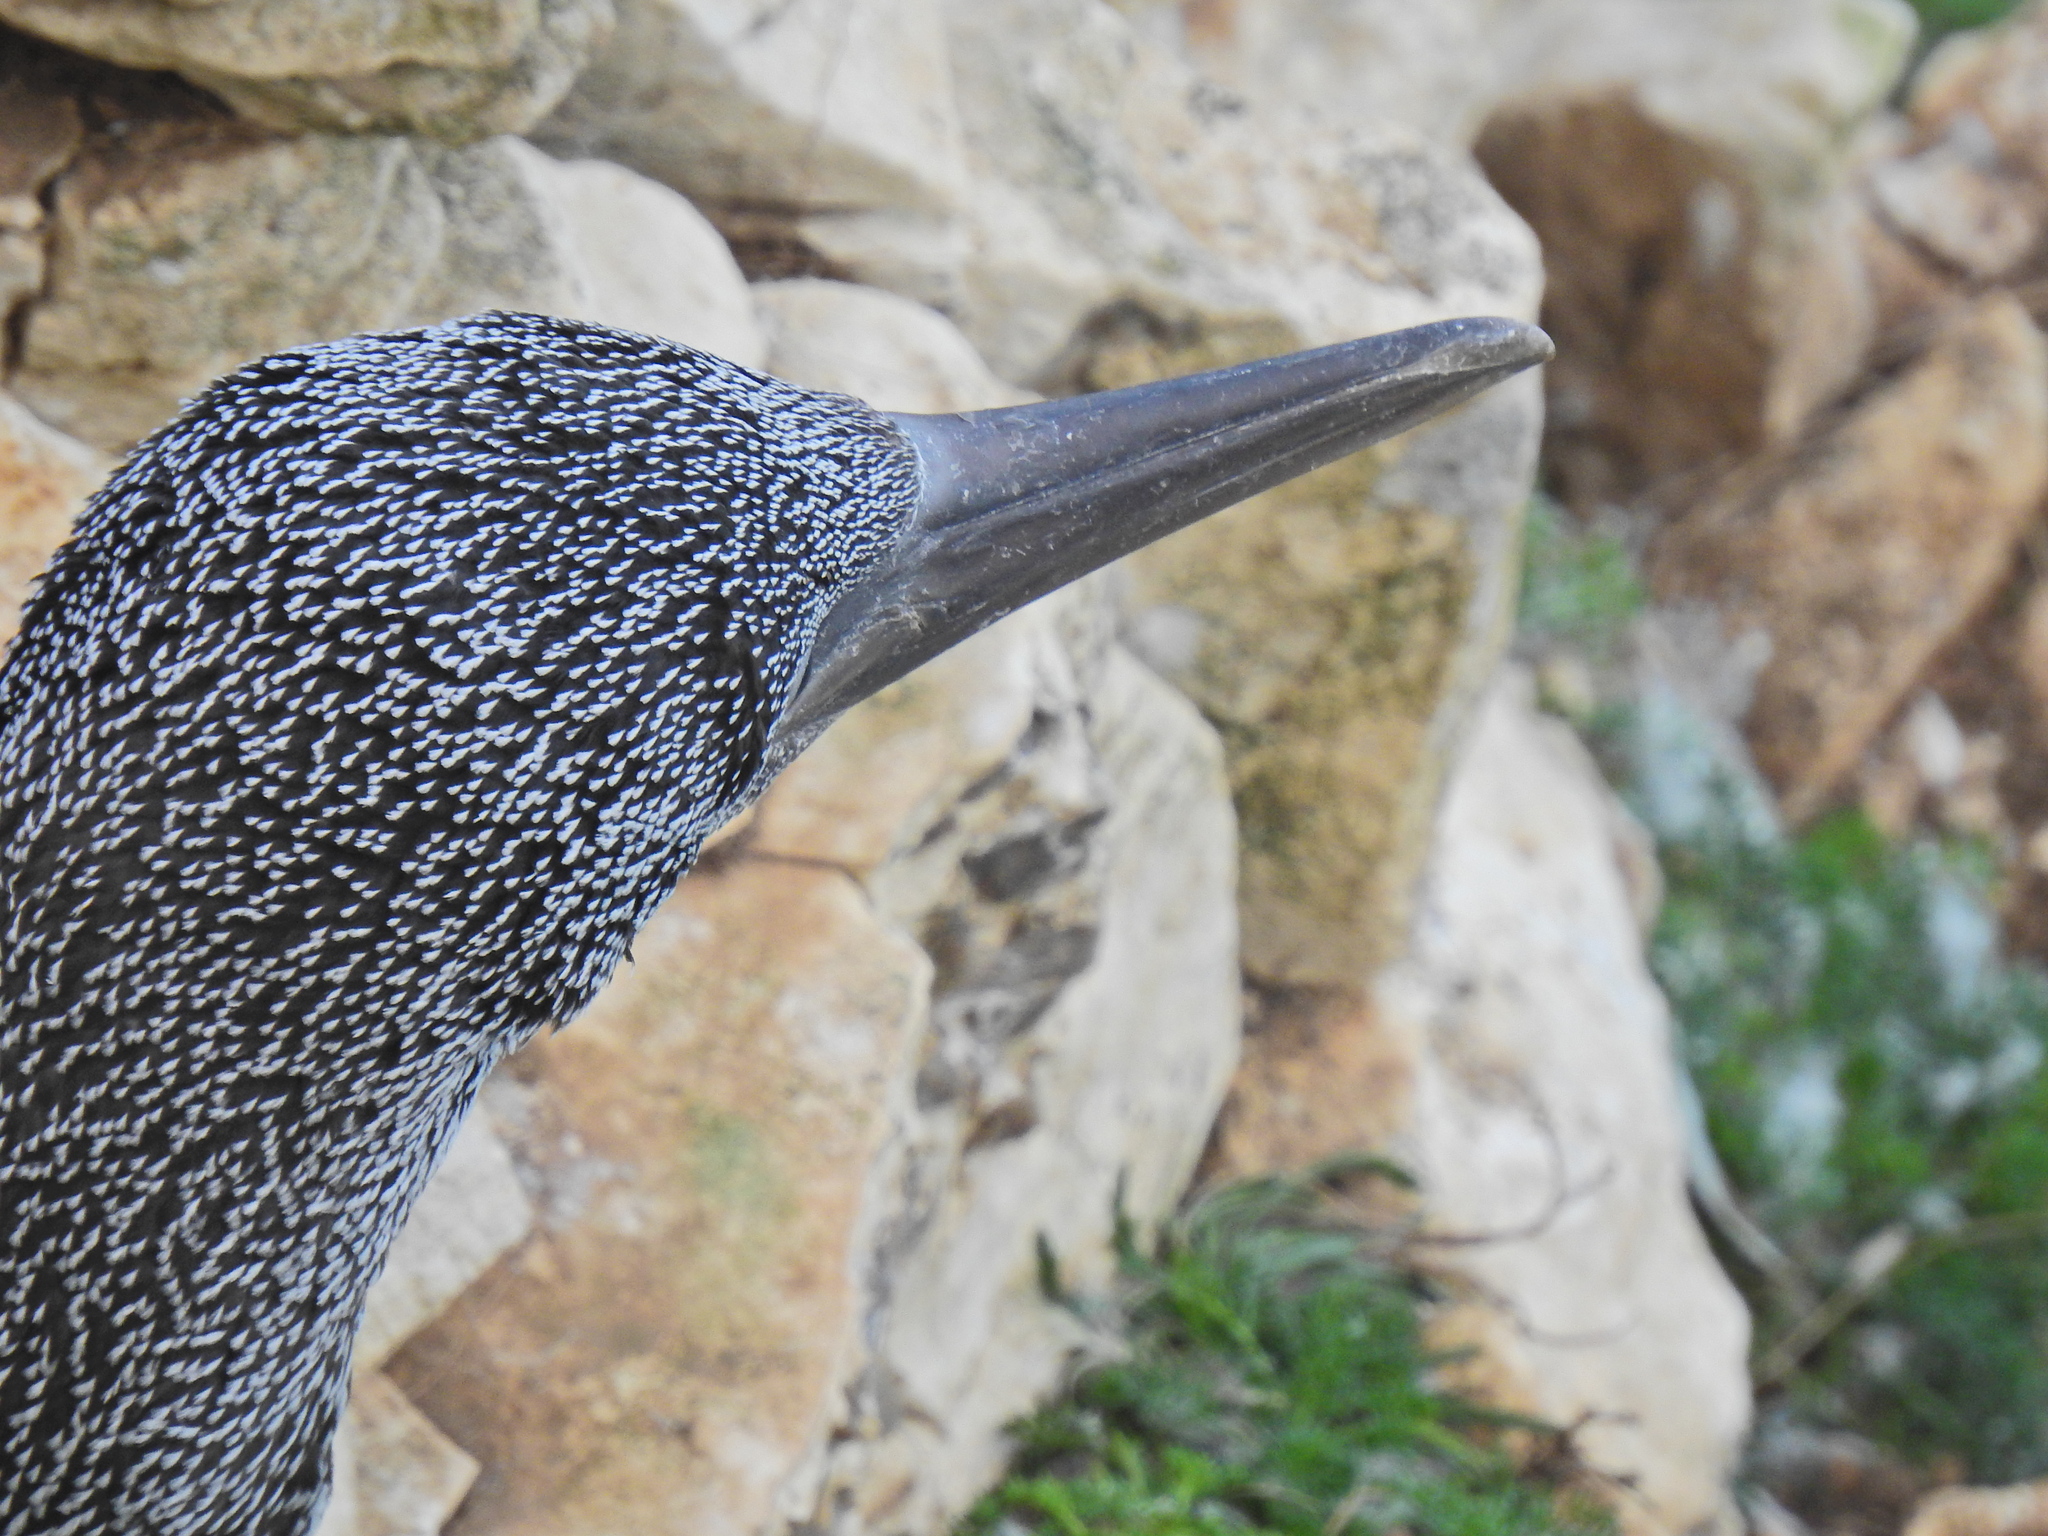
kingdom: Animalia
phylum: Chordata
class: Aves
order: Suliformes
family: Sulidae
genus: Morus
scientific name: Morus bassanus
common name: Northern gannet
